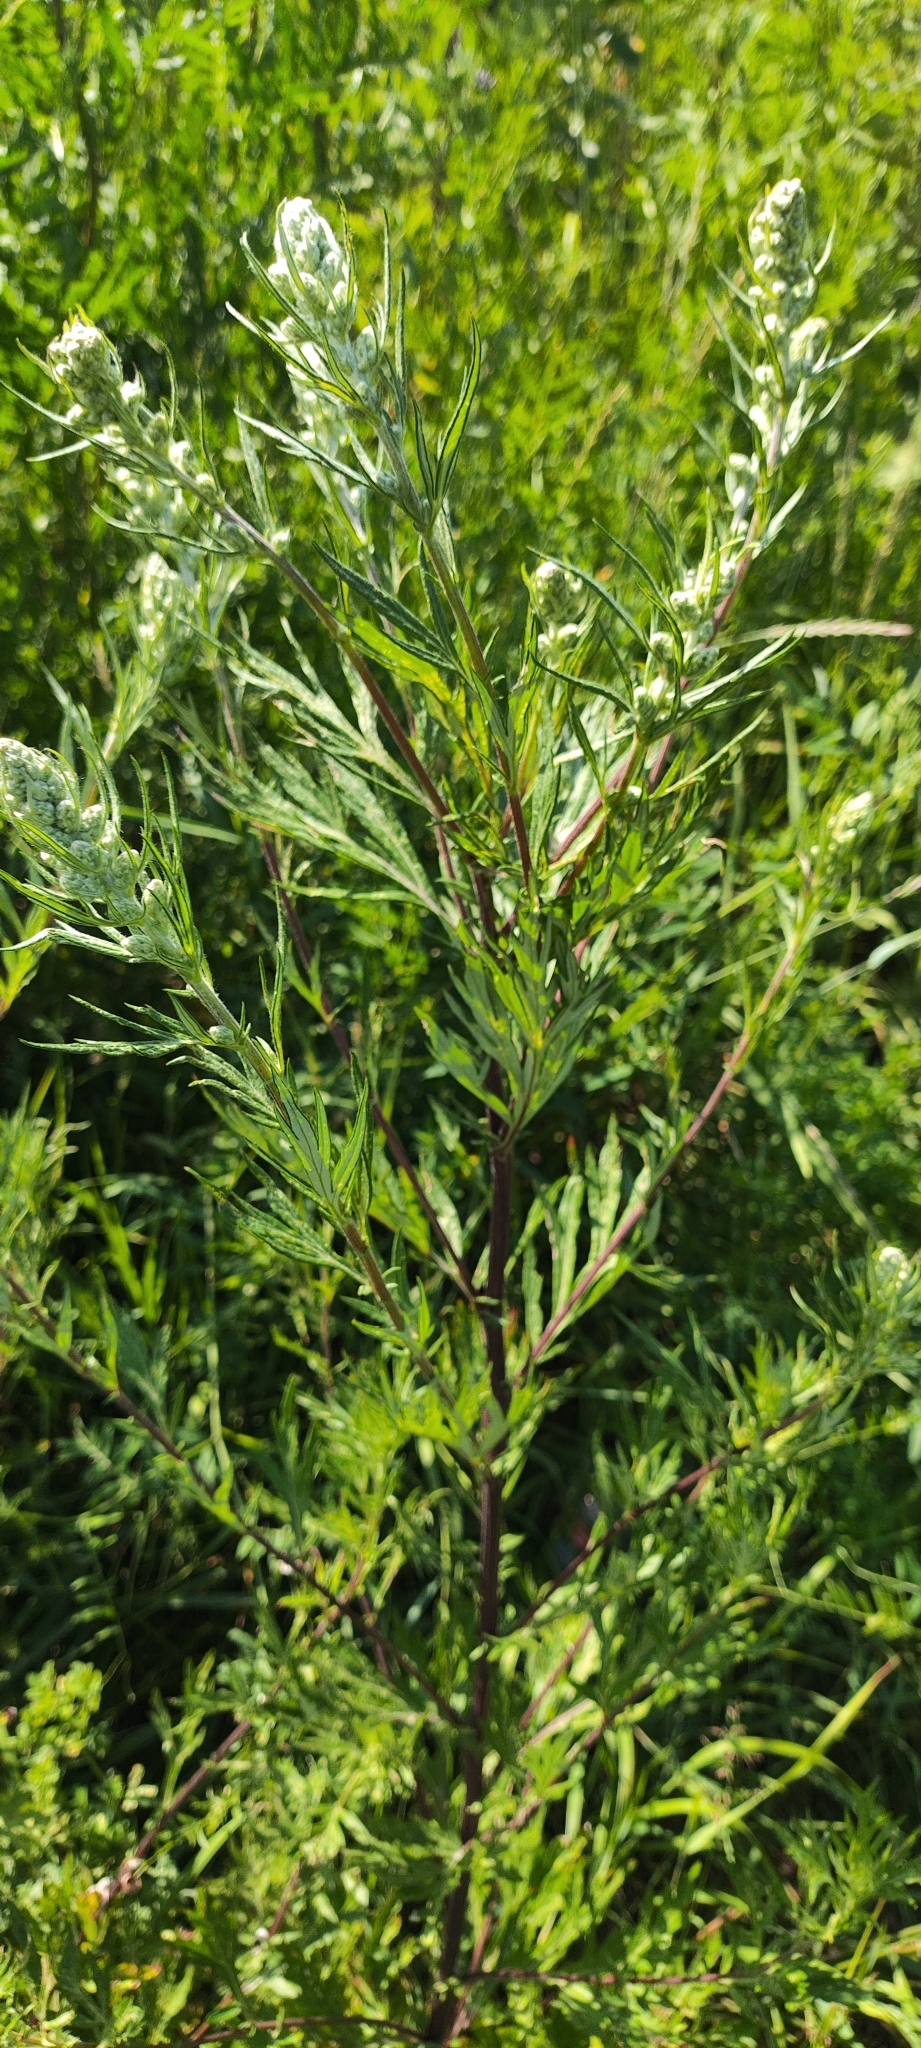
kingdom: Plantae
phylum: Tracheophyta
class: Magnoliopsida
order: Asterales
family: Asteraceae
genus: Artemisia
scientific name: Artemisia vulgaris
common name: Mugwort
